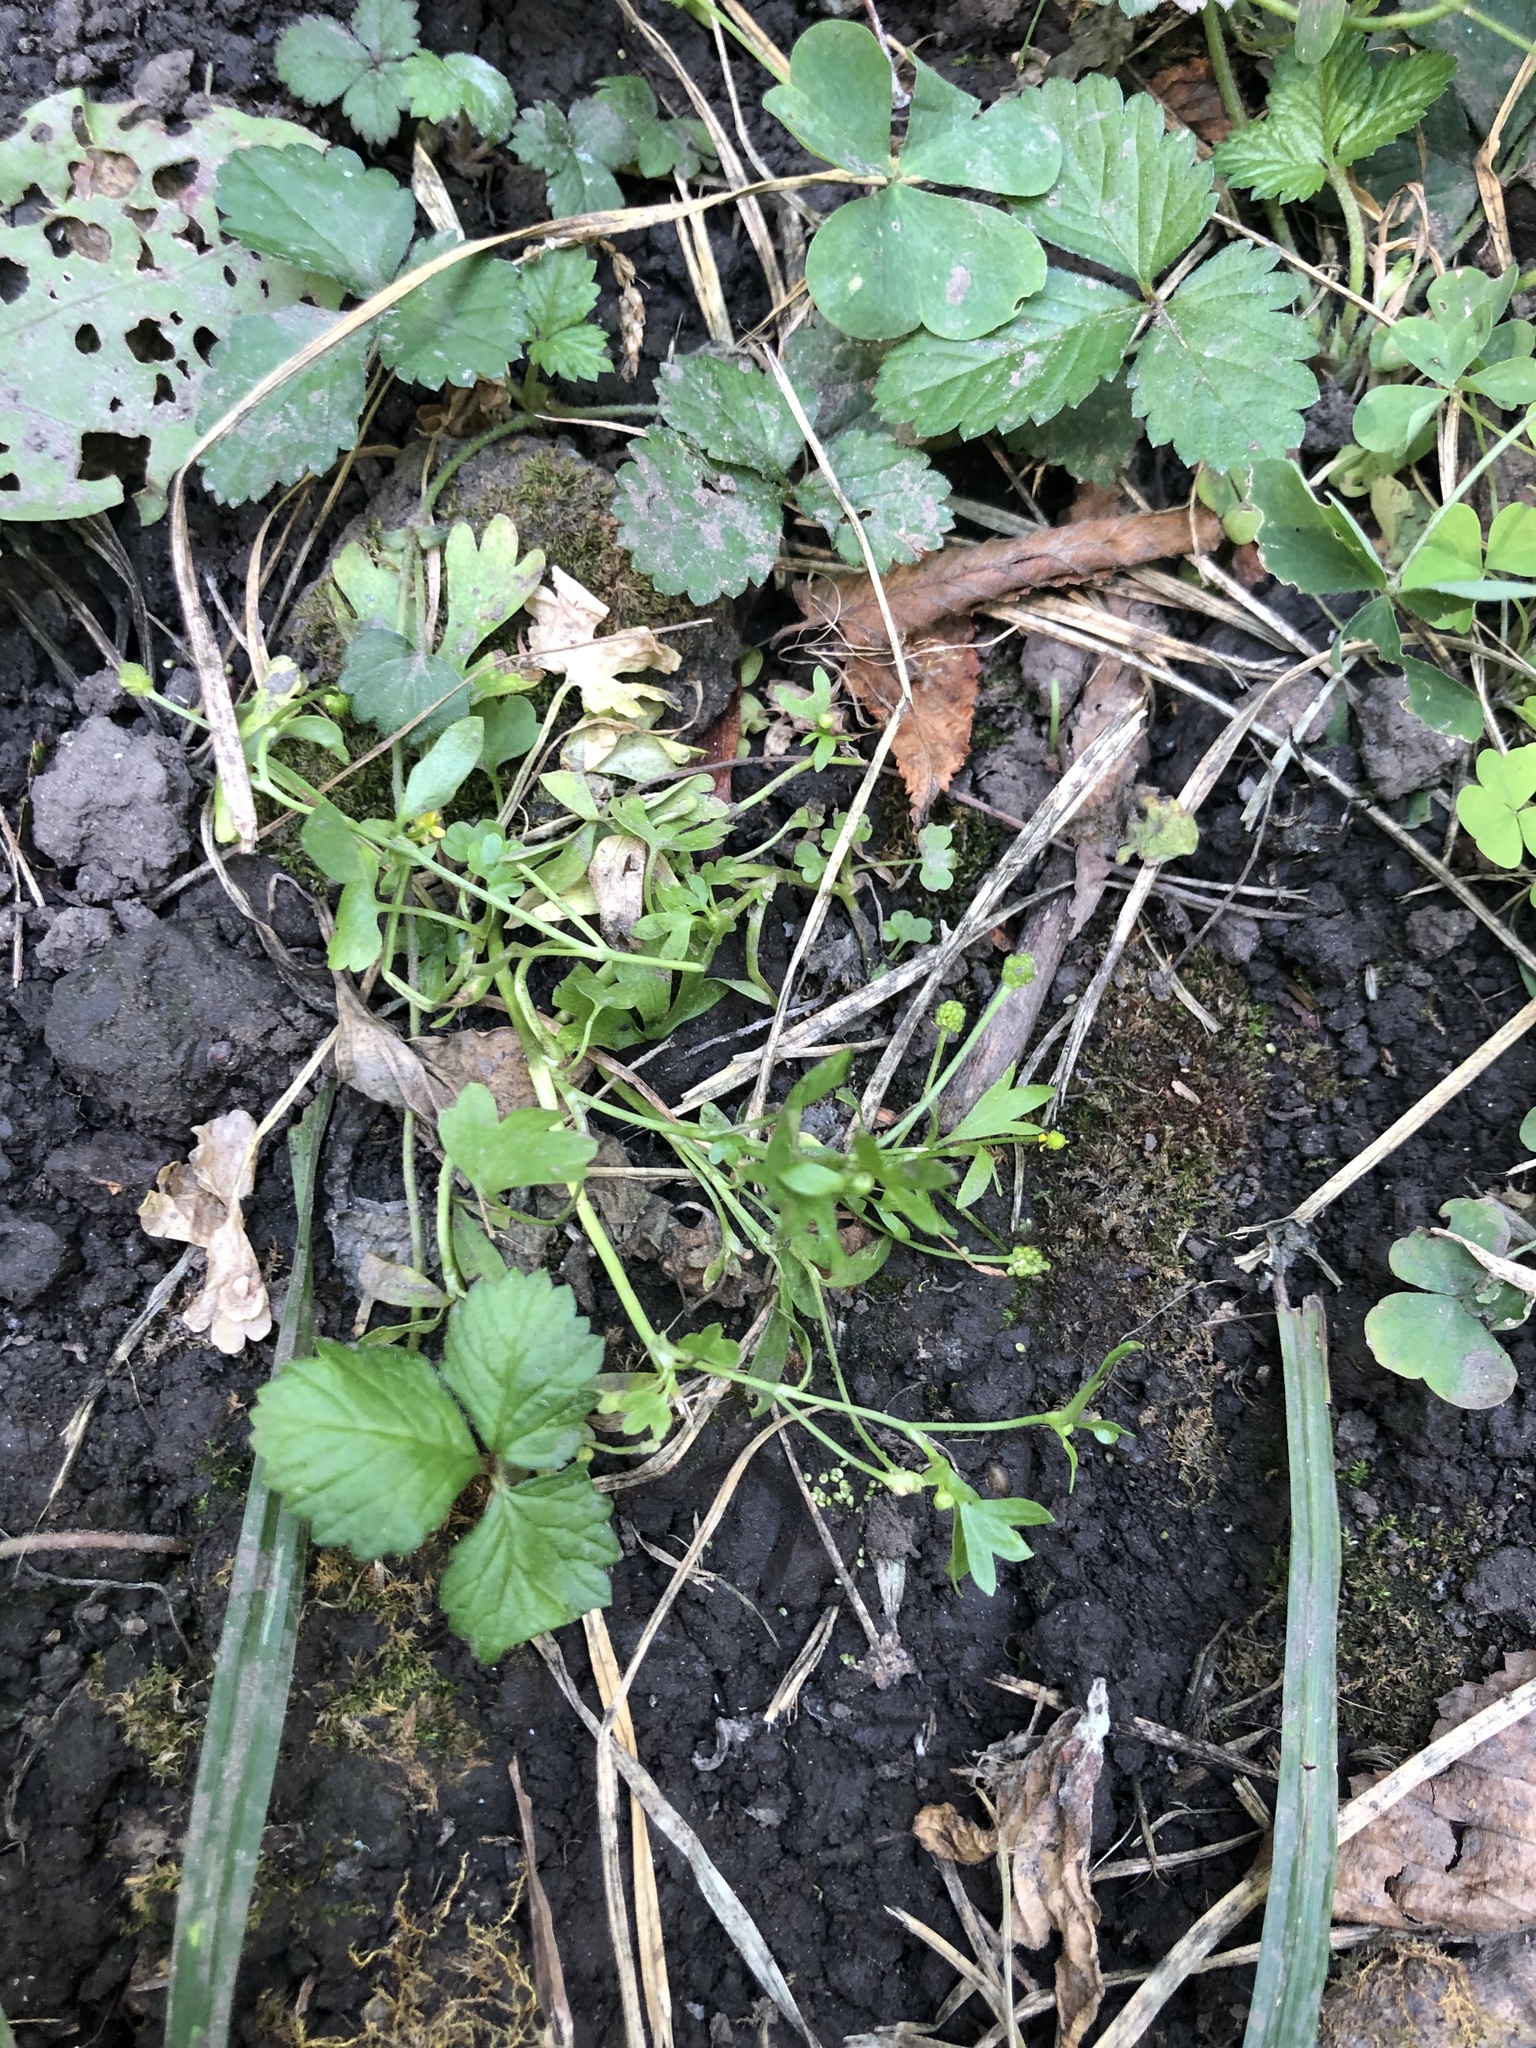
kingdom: Plantae
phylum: Tracheophyta
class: Magnoliopsida
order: Ranunculales
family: Ranunculaceae
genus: Ranunculus
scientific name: Ranunculus sceleratus
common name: Celery-leaved buttercup
